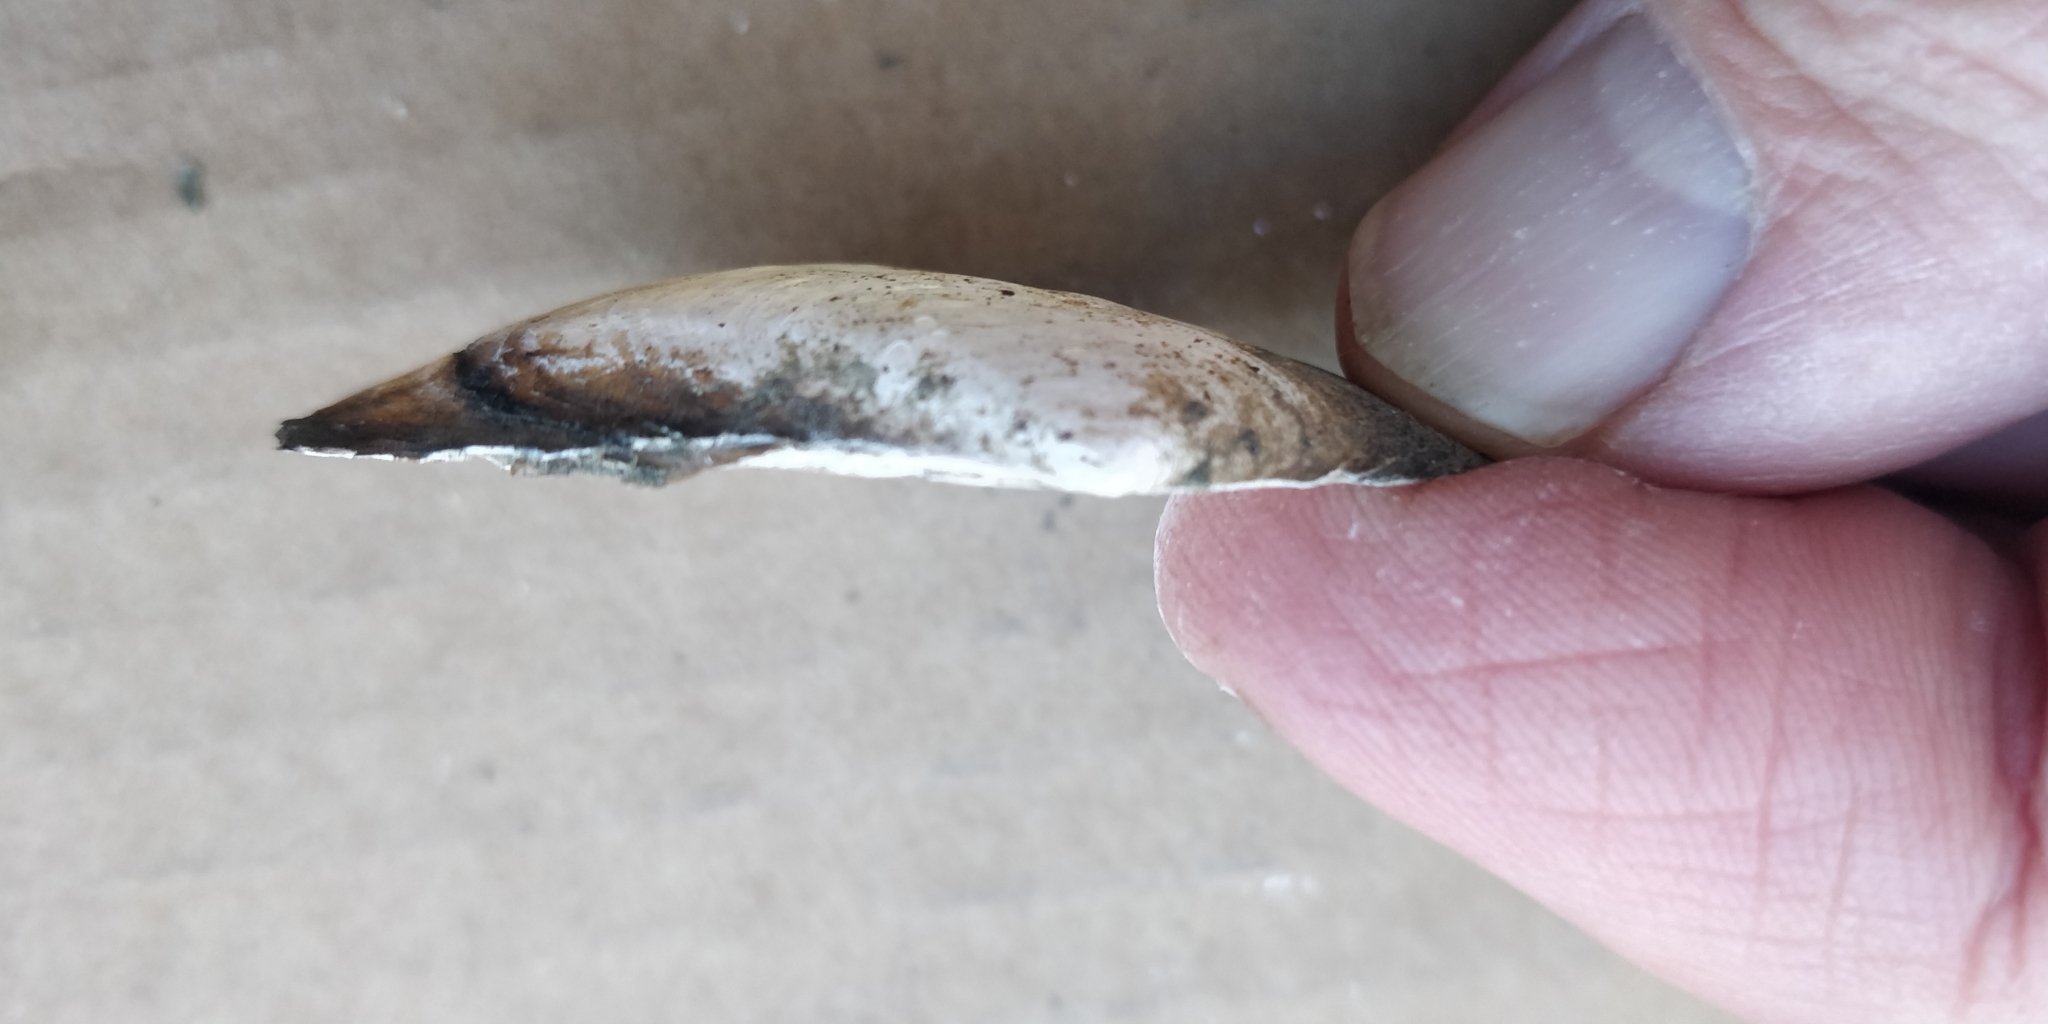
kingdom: Animalia
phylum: Mollusca
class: Bivalvia
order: Unionida
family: Unionidae
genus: Potamilus
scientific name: Potamilus fragilis
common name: Fragile papershell
